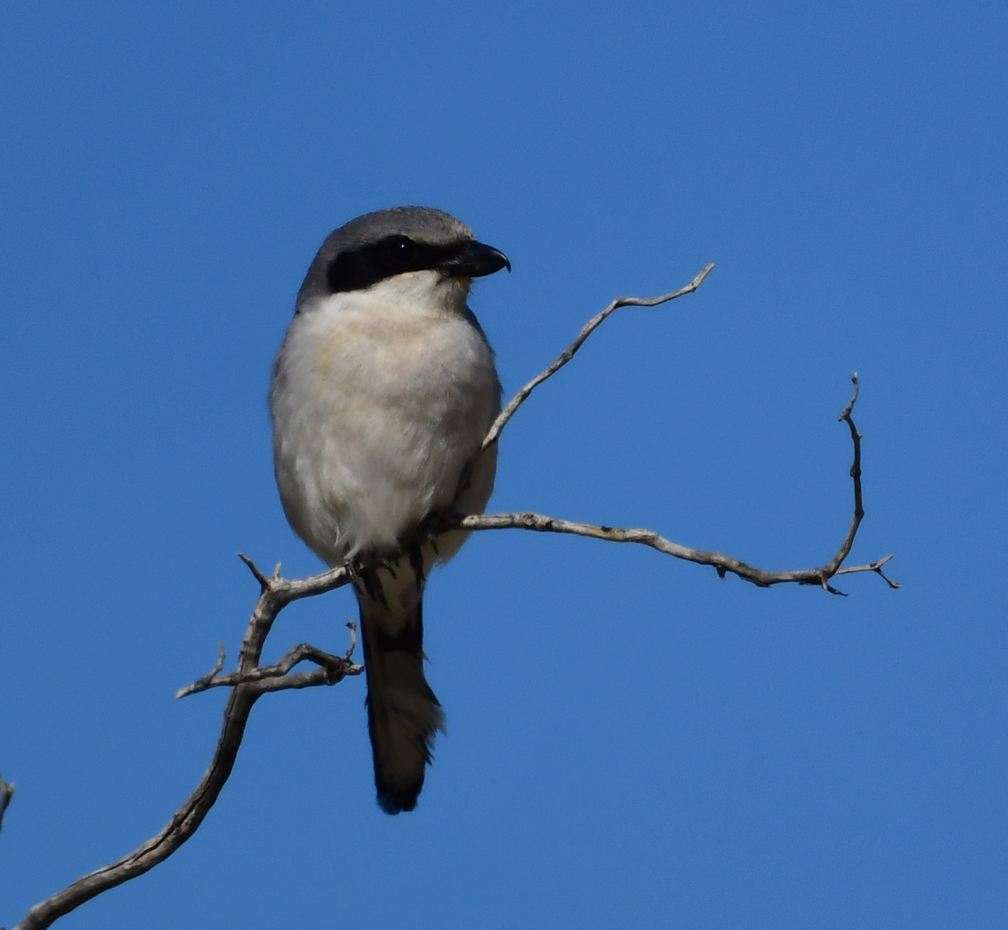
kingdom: Animalia
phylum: Chordata
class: Aves
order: Passeriformes
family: Laniidae
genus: Lanius
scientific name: Lanius ludovicianus
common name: Loggerhead shrike
